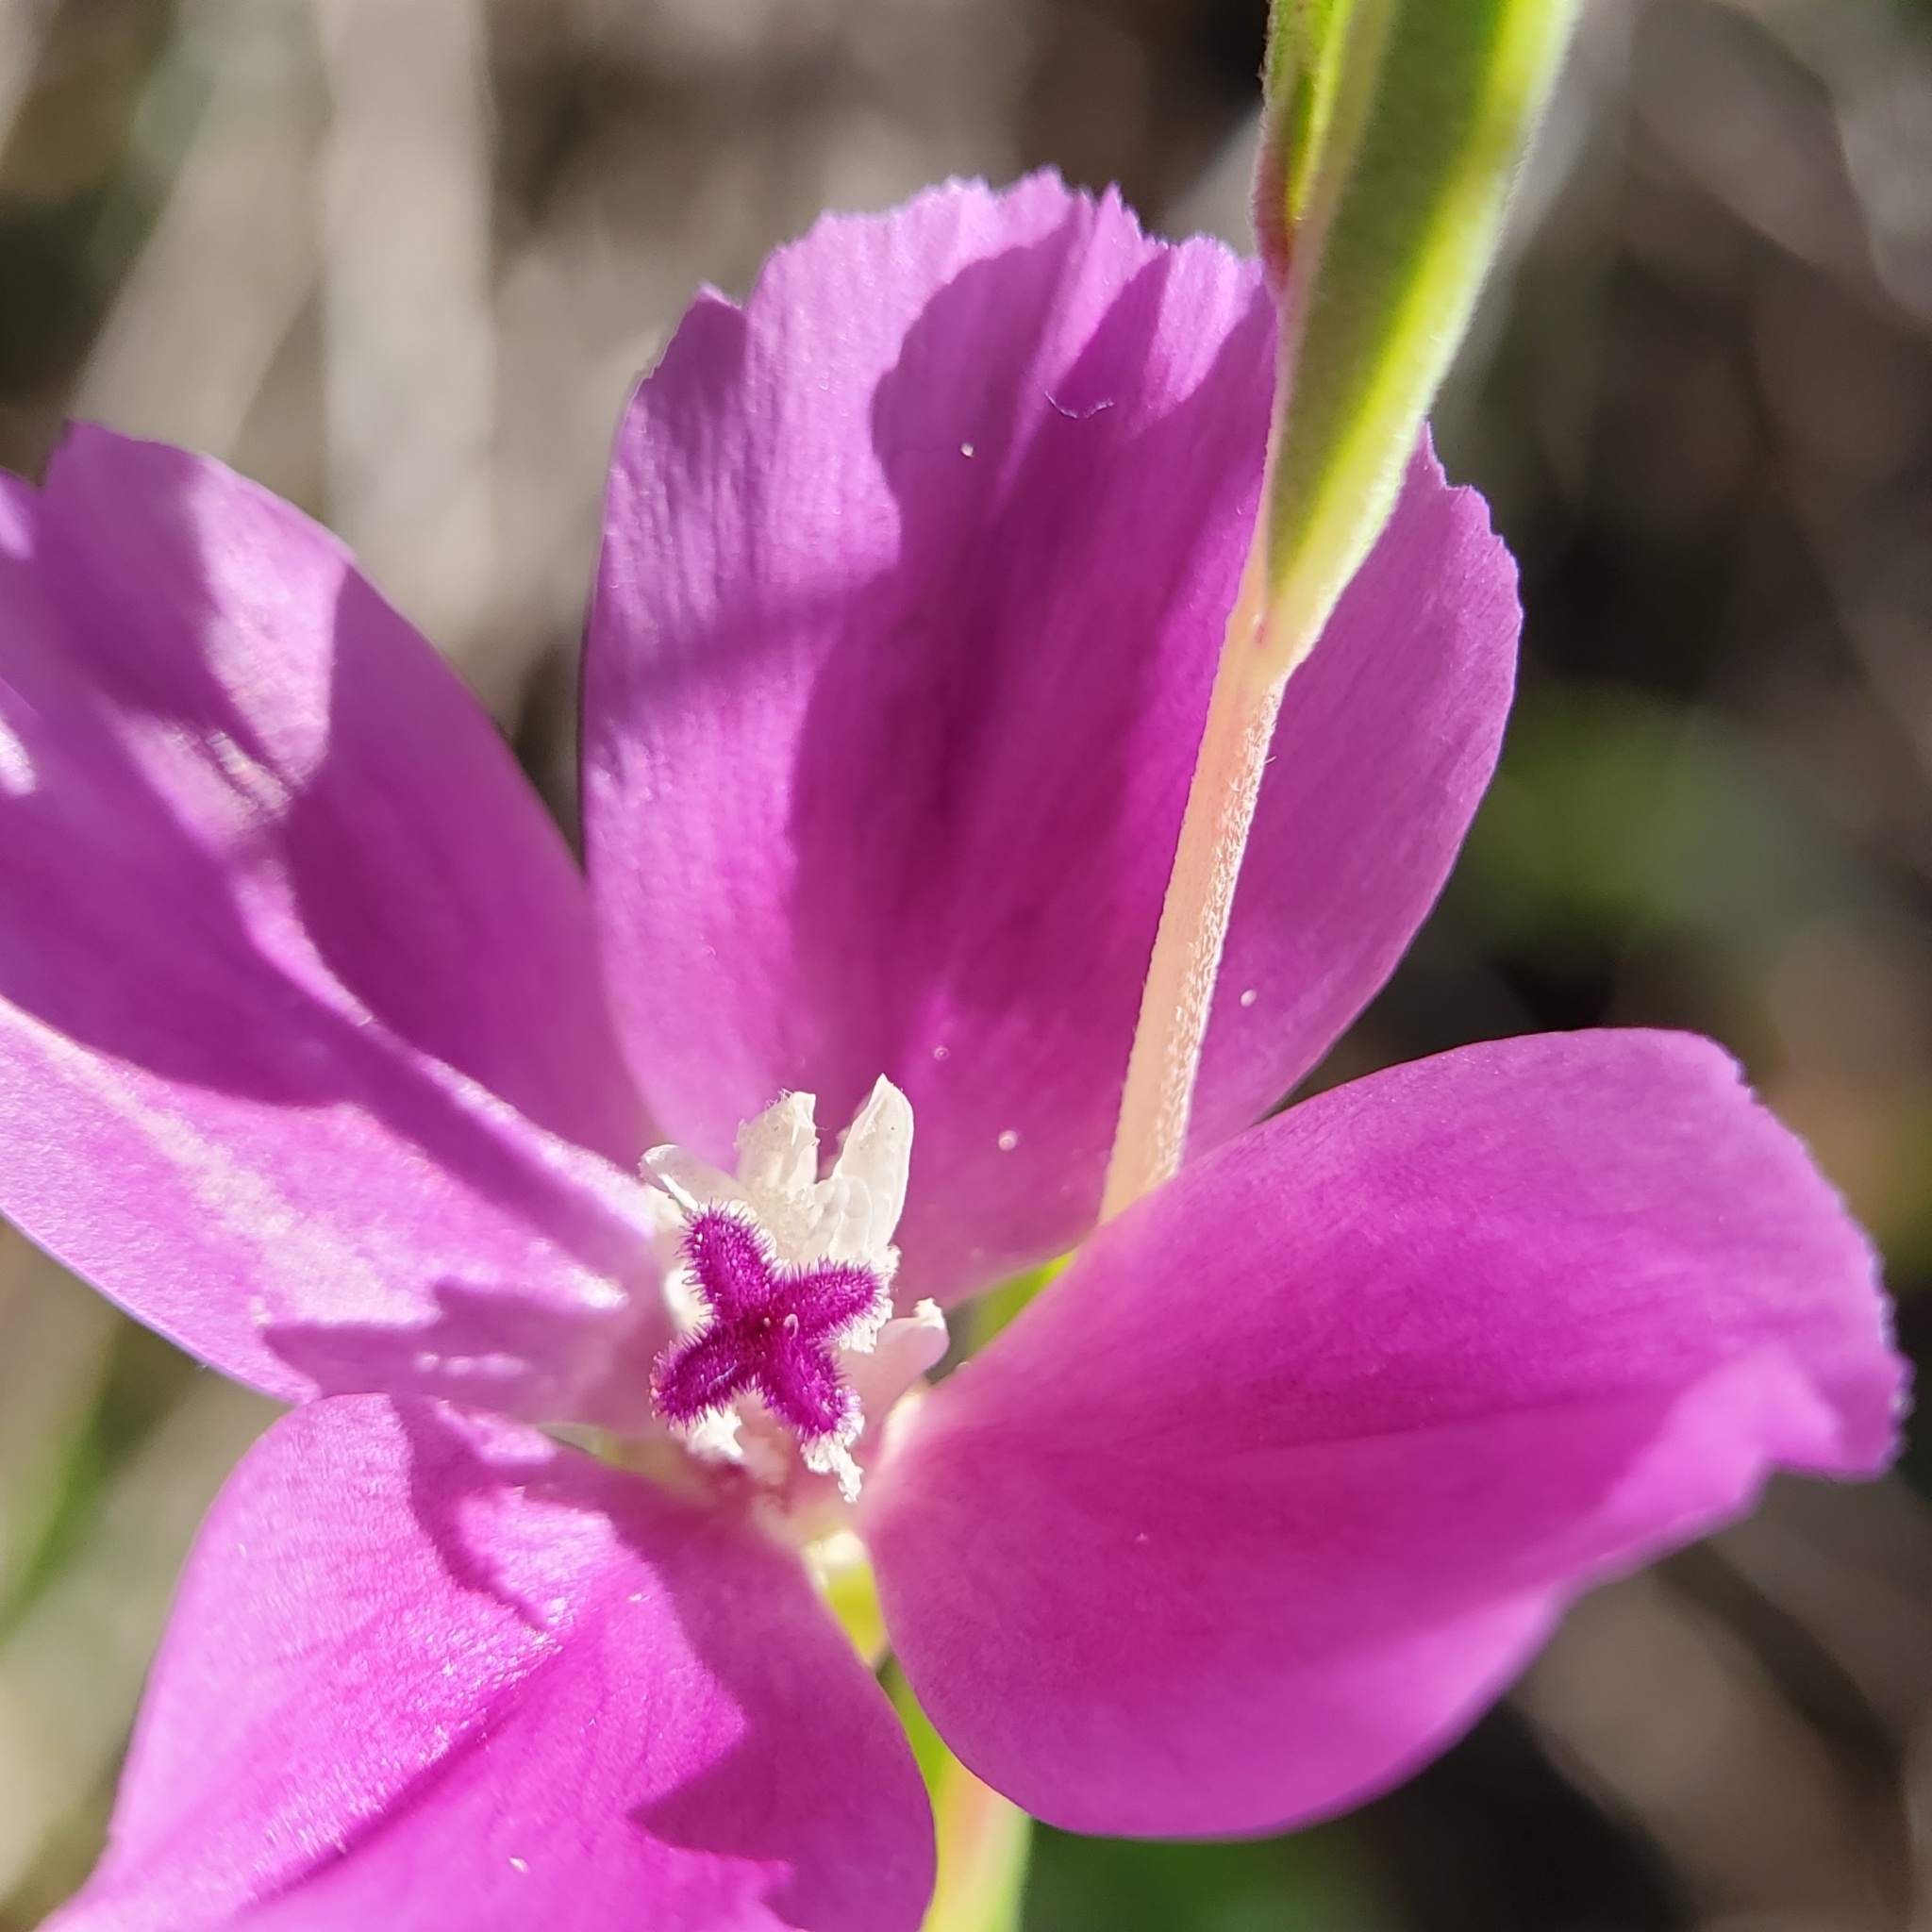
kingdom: Plantae
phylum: Tracheophyta
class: Magnoliopsida
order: Myrtales
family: Onagraceae
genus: Clarkia
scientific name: Clarkia purpurea
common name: Purple clarkia
